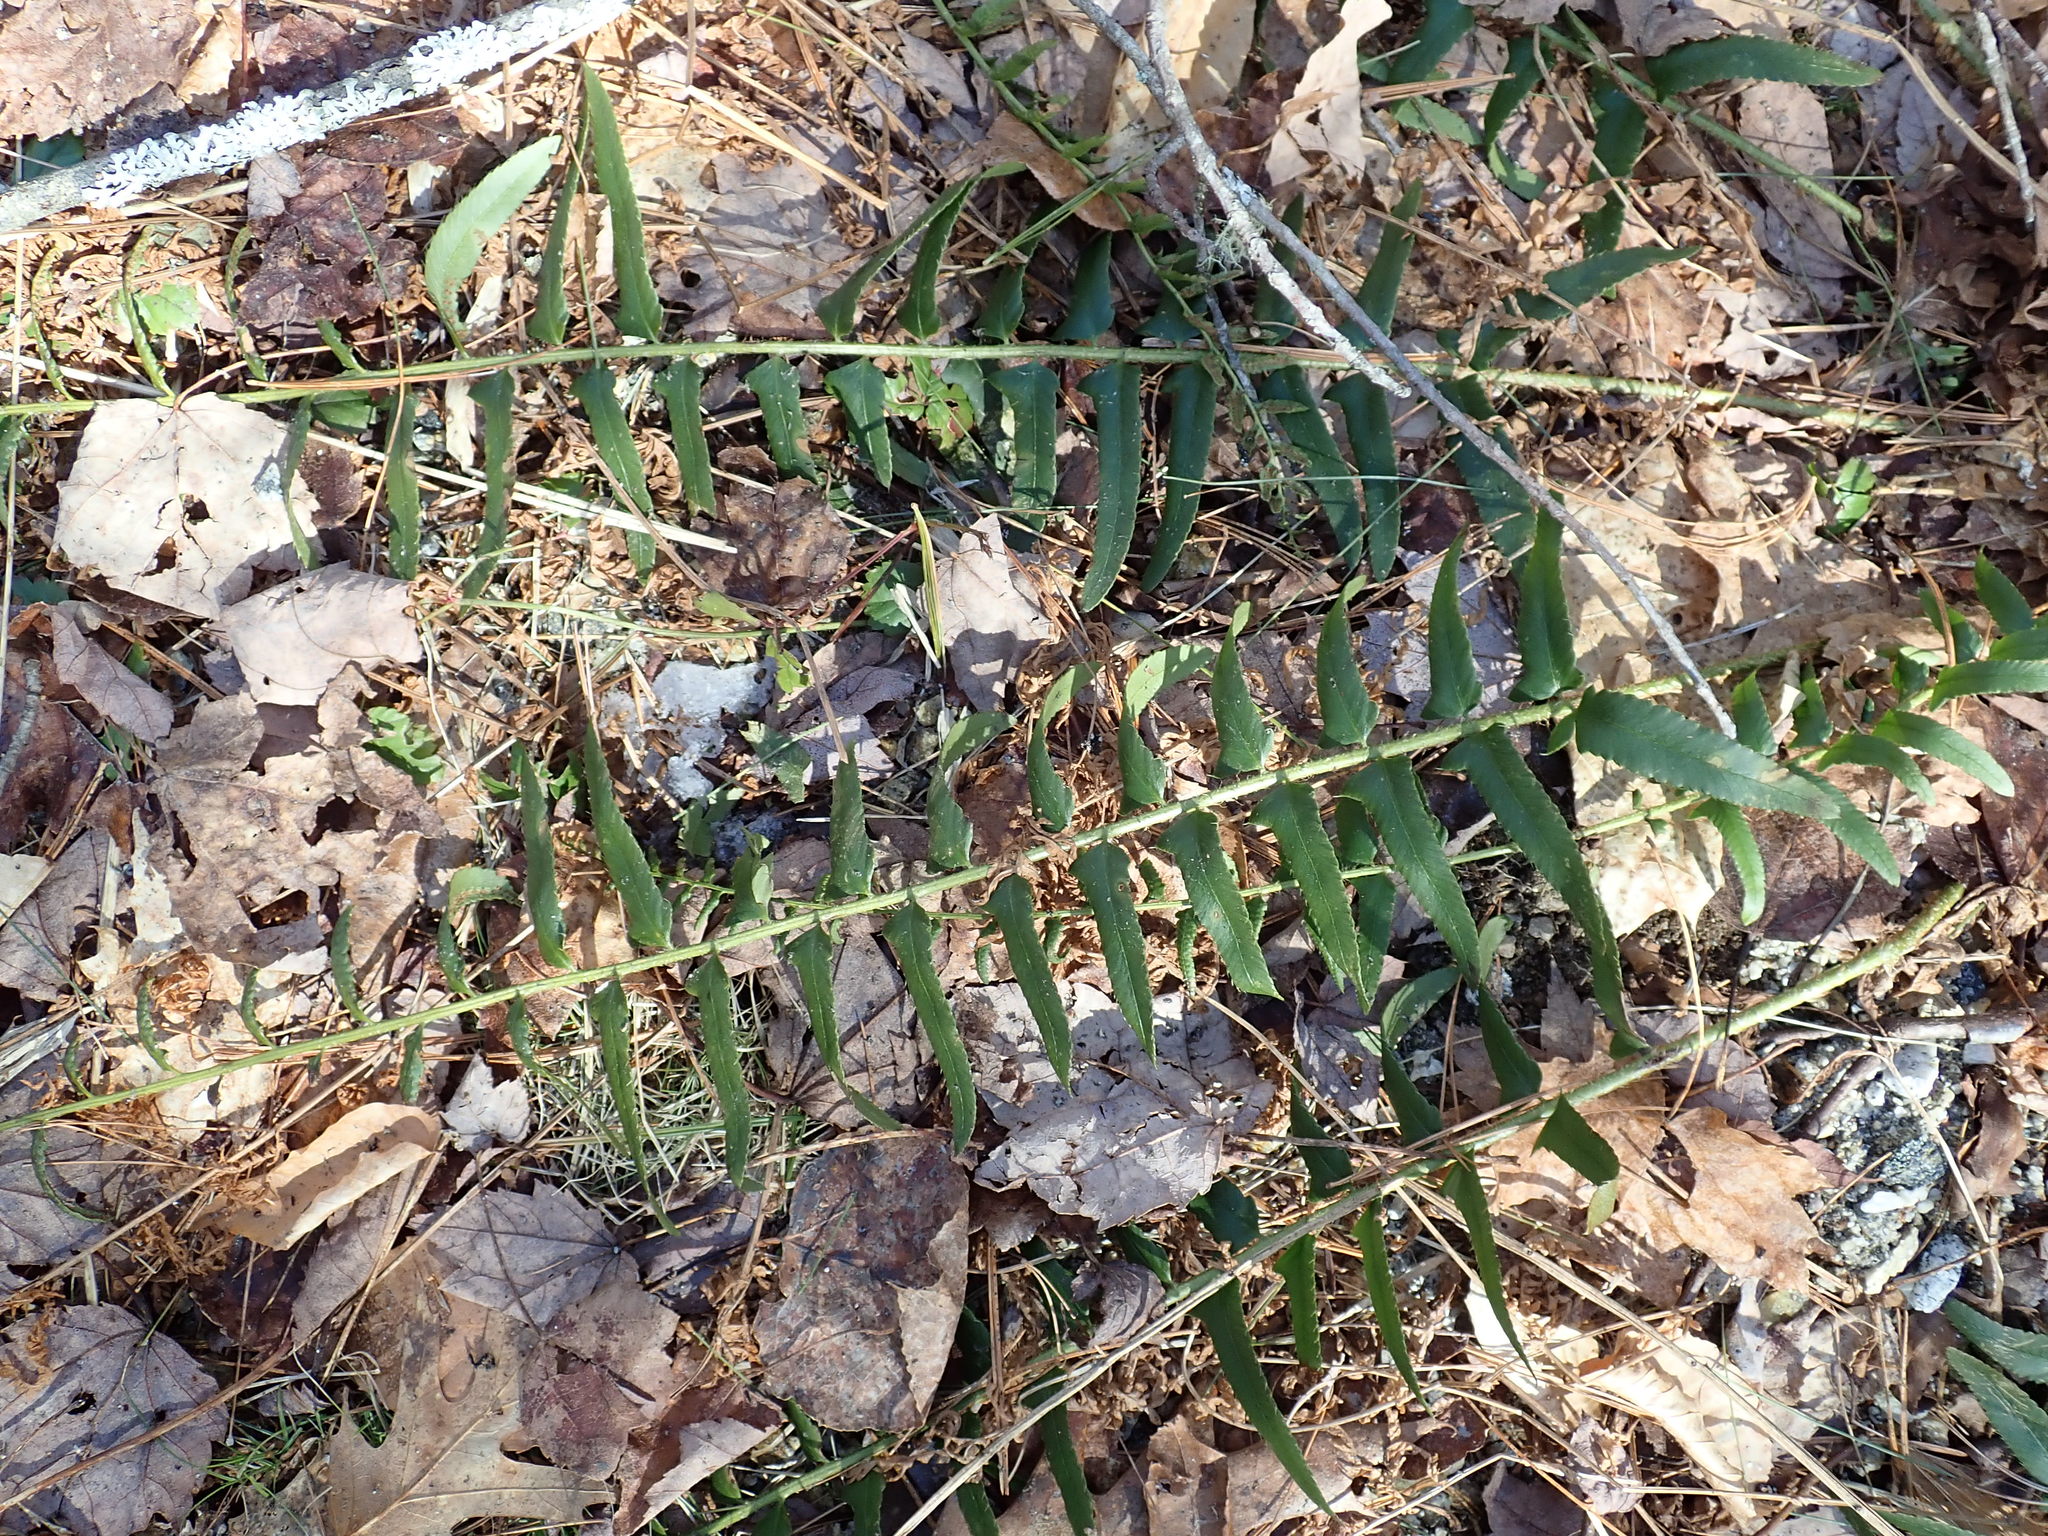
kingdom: Plantae
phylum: Tracheophyta
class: Polypodiopsida
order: Polypodiales
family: Dryopteridaceae
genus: Polystichum
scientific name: Polystichum acrostichoides
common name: Christmas fern
